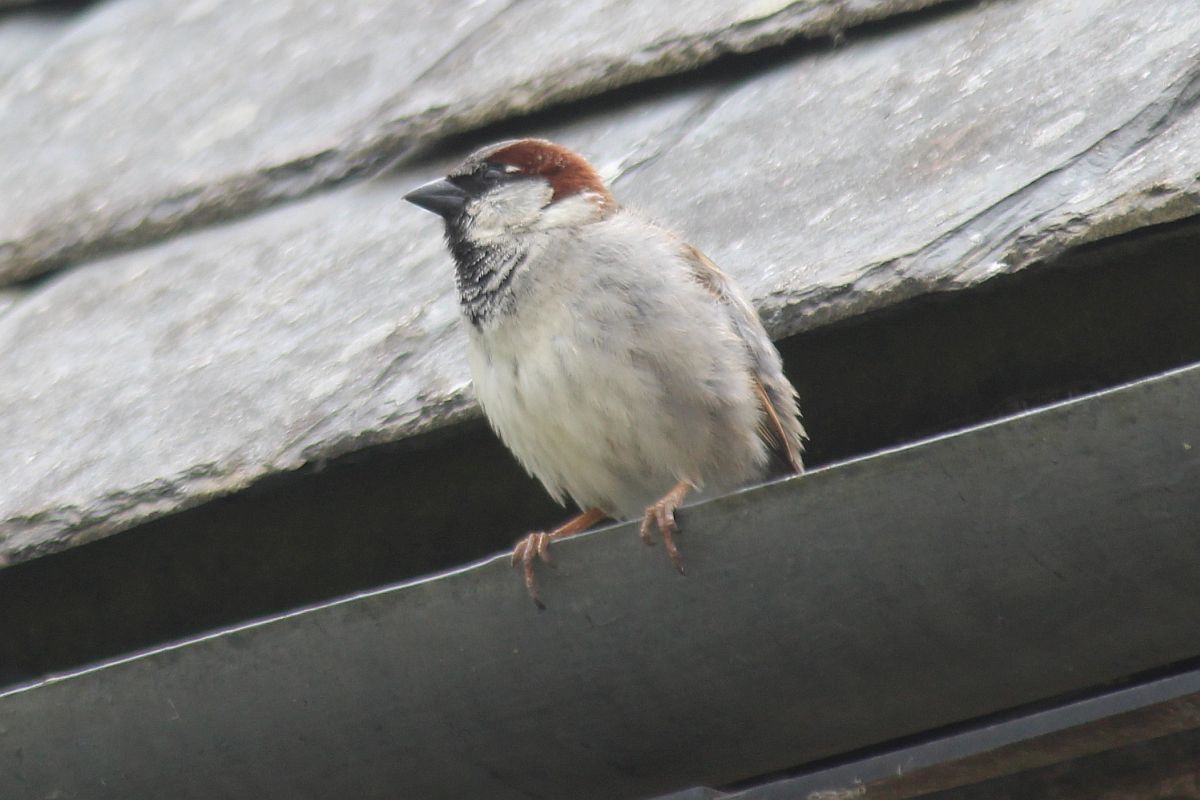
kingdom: Animalia
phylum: Chordata
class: Aves
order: Passeriformes
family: Passeridae
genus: Passer
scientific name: Passer domesticus
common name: House sparrow
